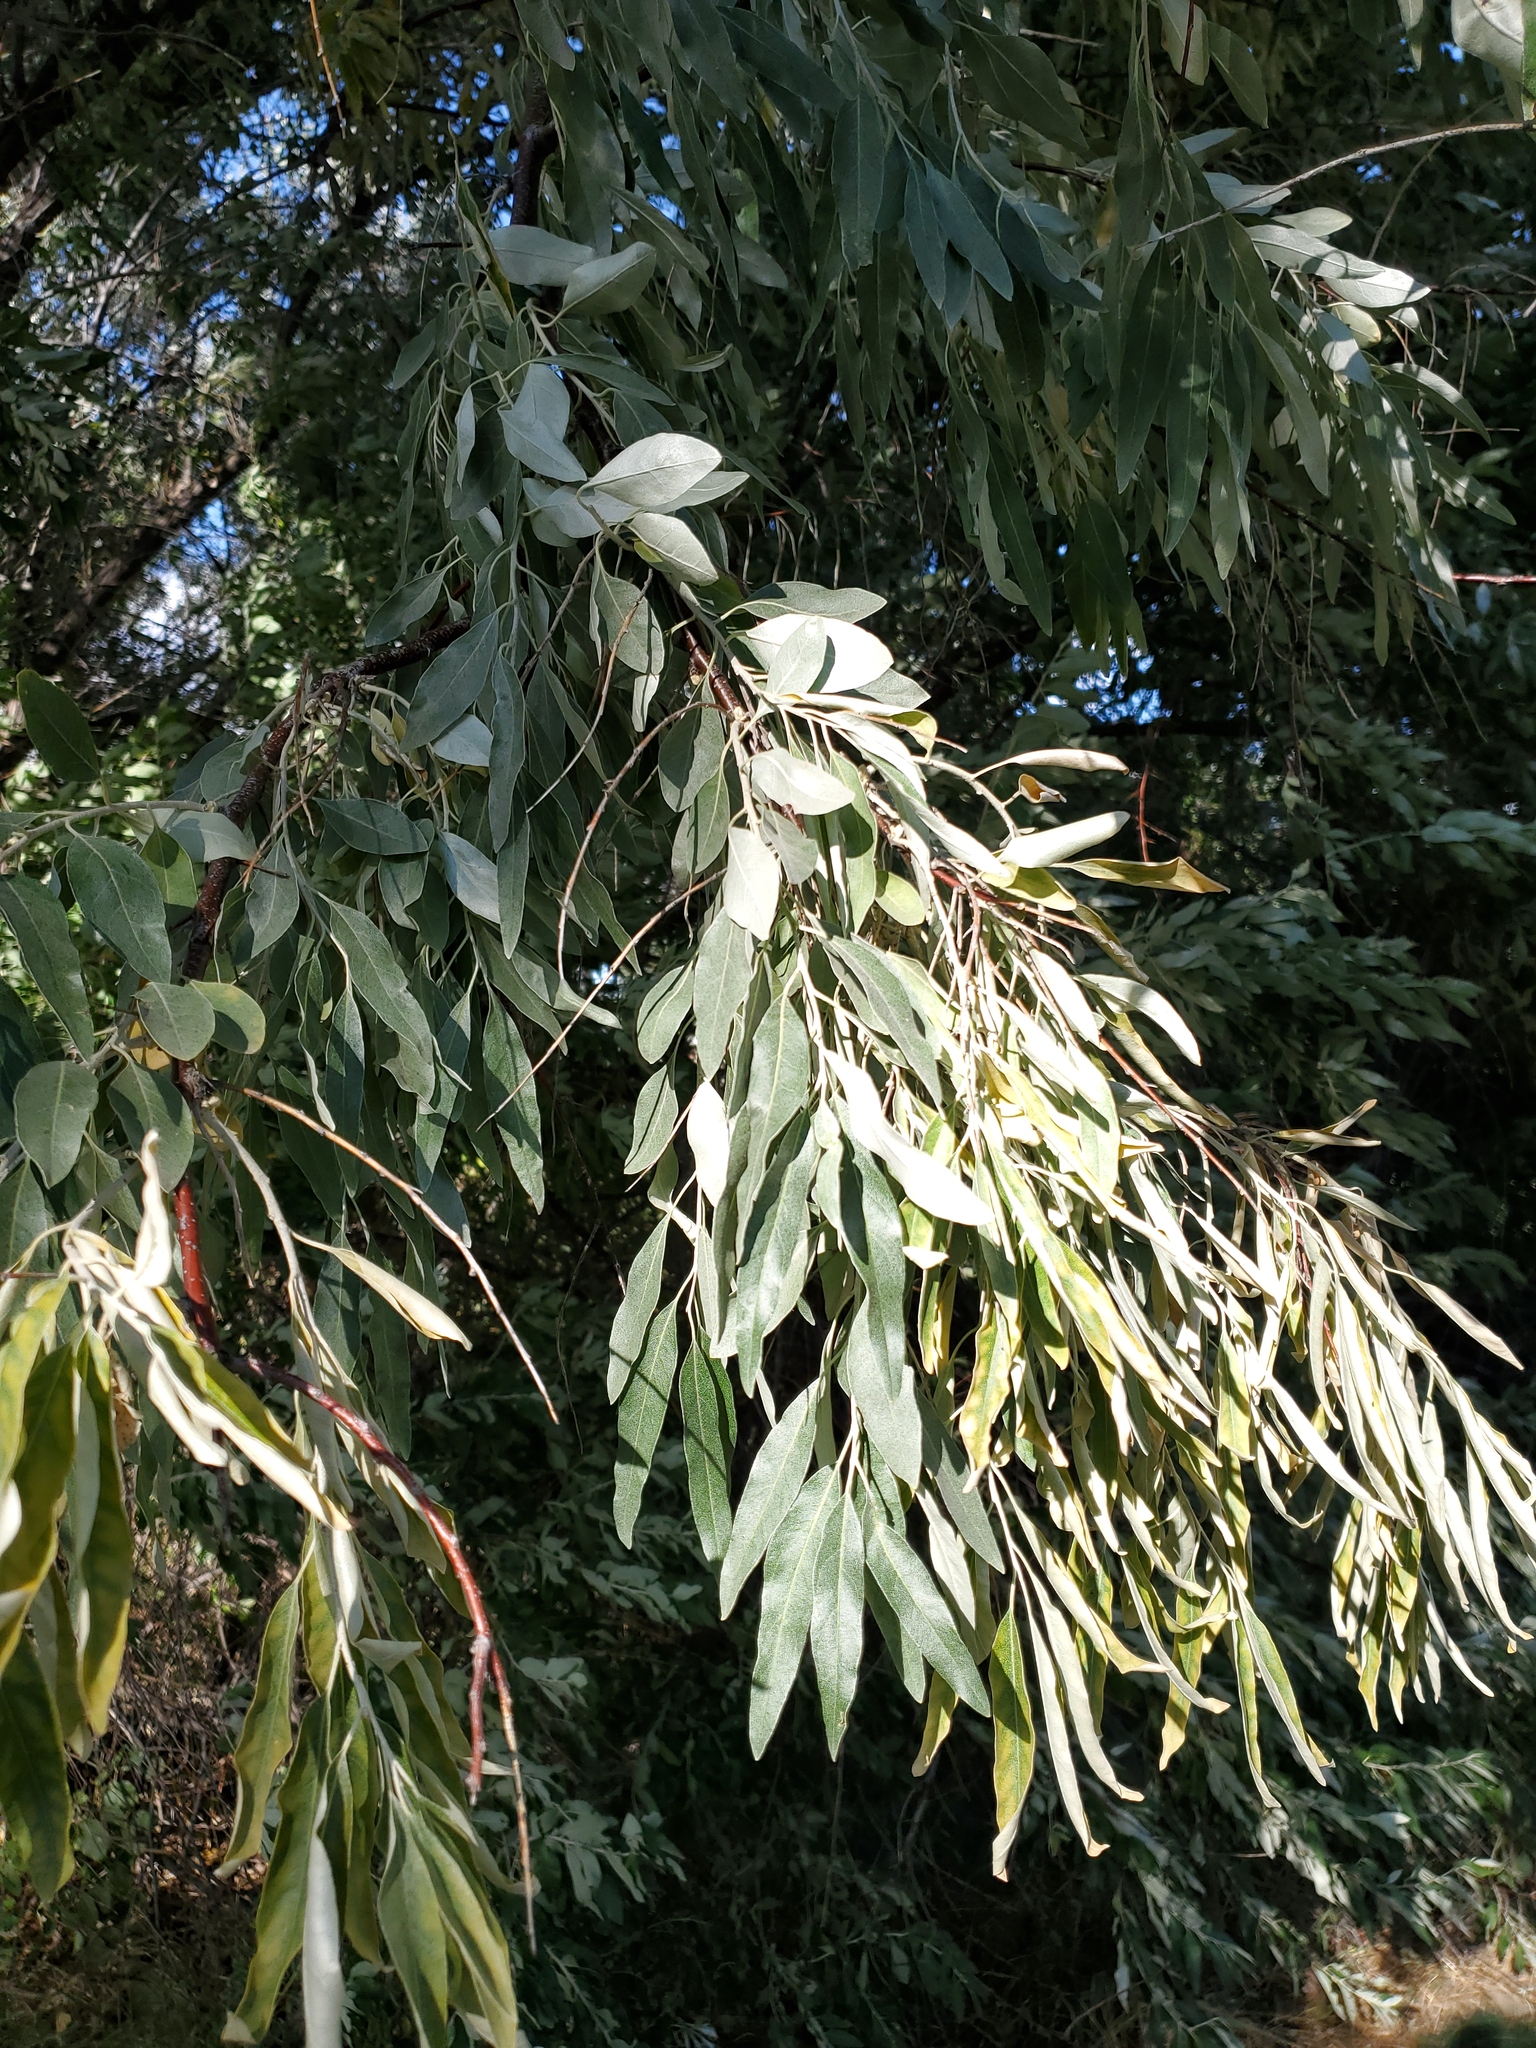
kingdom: Plantae
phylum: Tracheophyta
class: Magnoliopsida
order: Rosales
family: Elaeagnaceae
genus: Elaeagnus
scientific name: Elaeagnus angustifolia
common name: Russian olive
